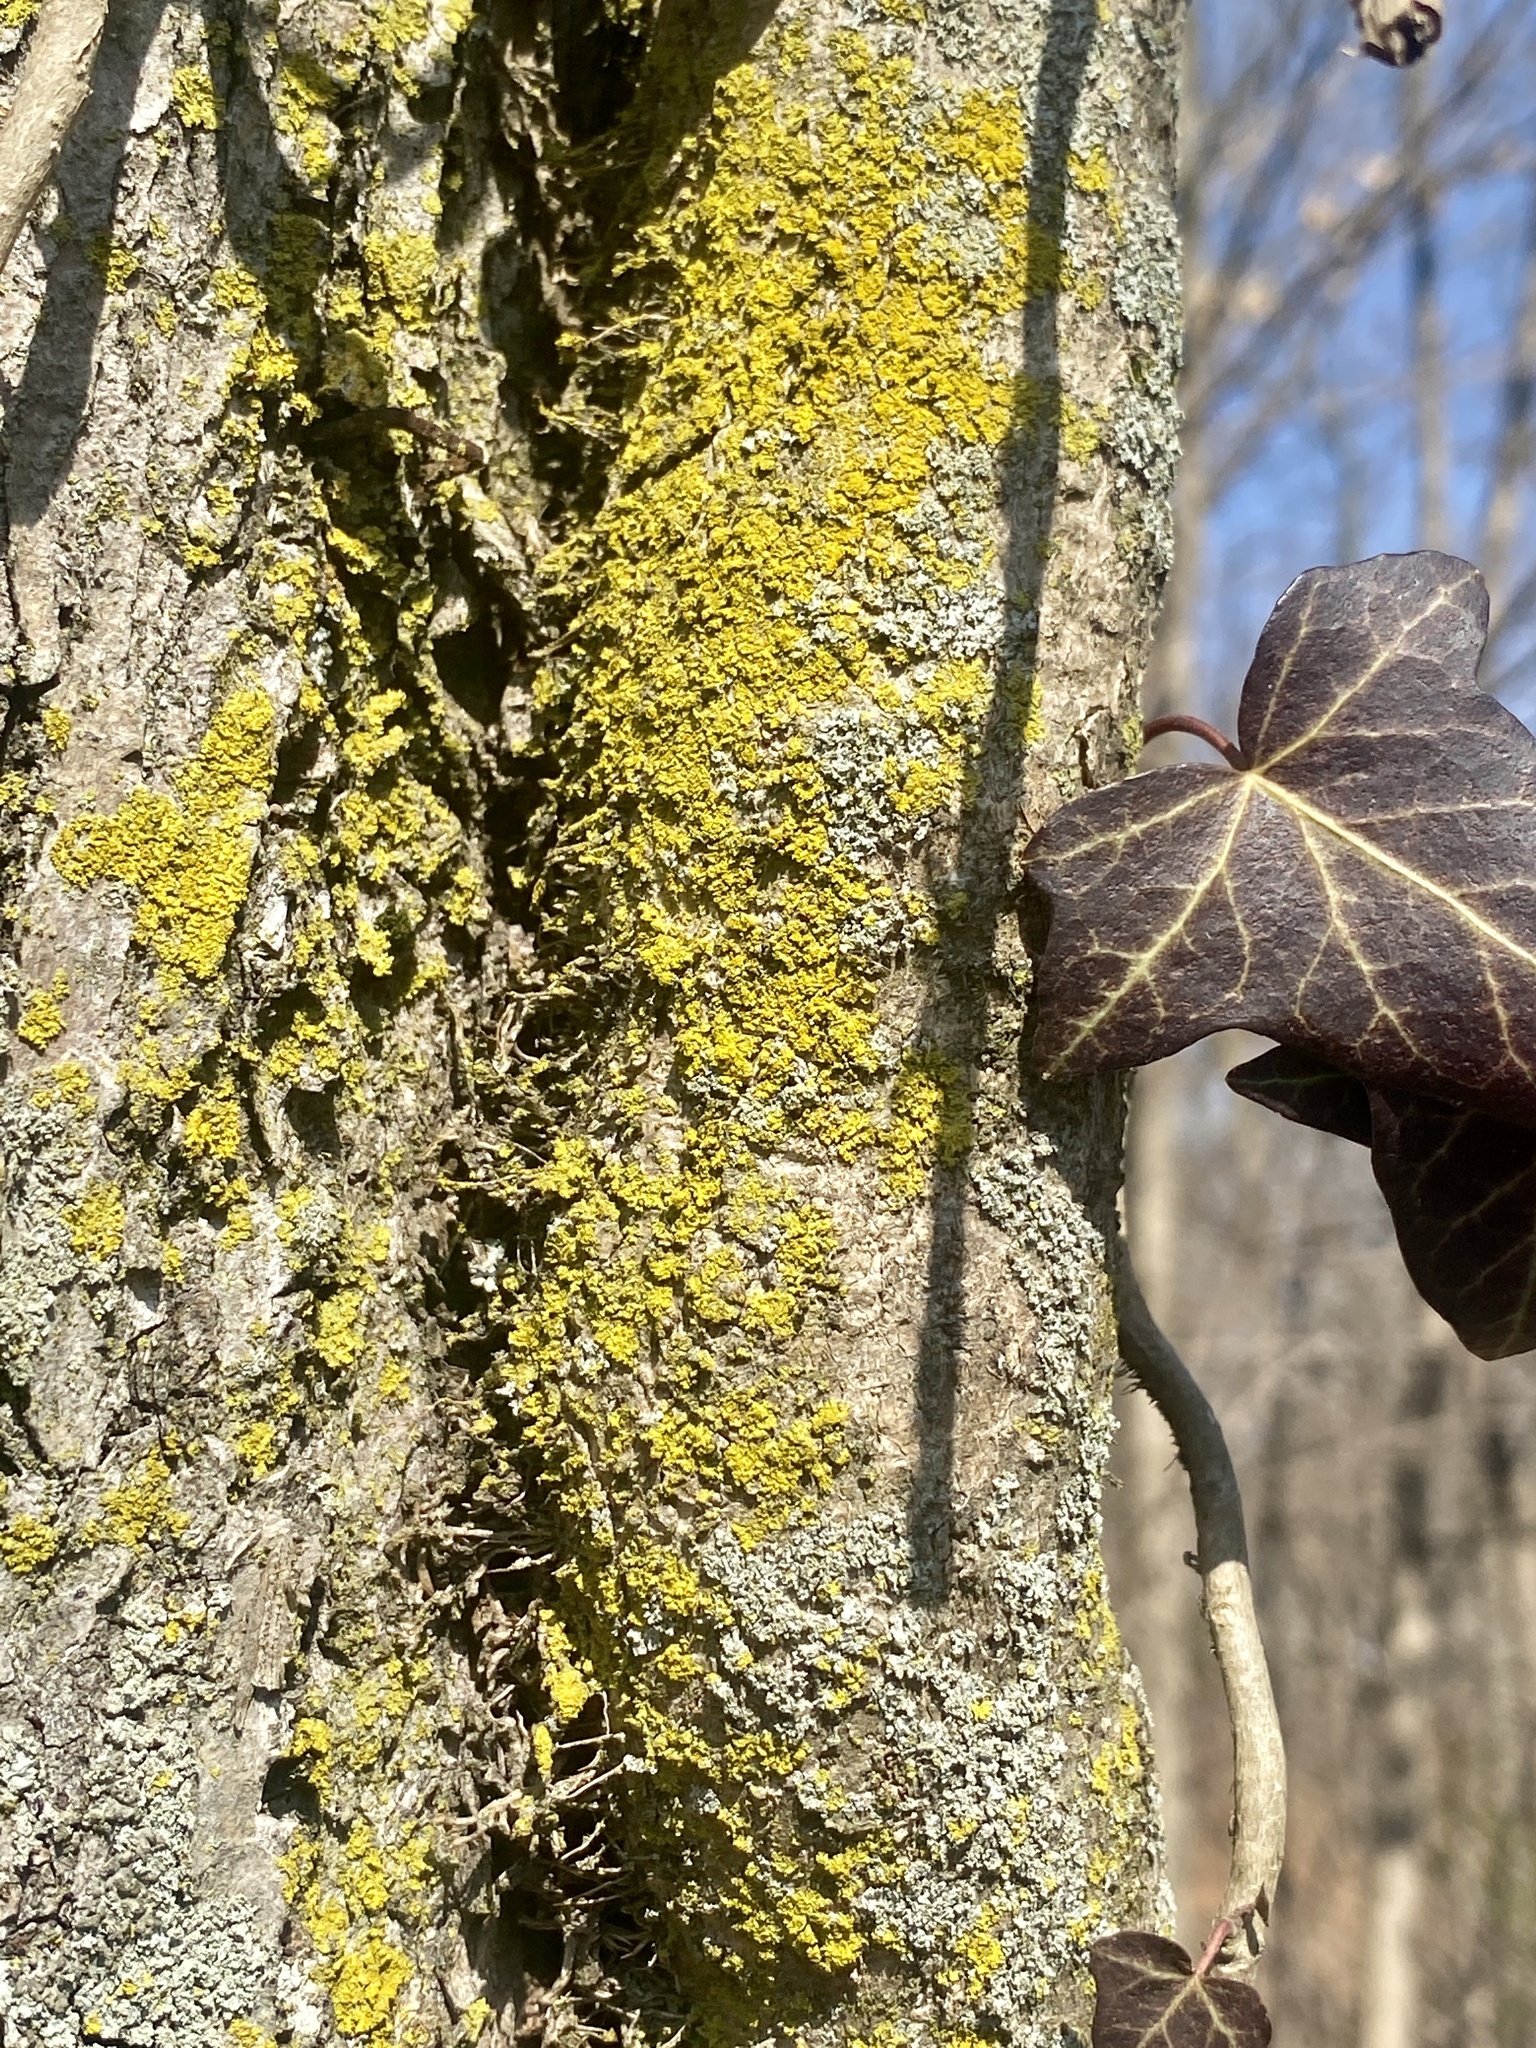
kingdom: Fungi
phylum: Ascomycota
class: Candelariomycetes
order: Candelariales
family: Candelariaceae
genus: Candelaria
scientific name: Candelaria concolor
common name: Candleflame lichen
